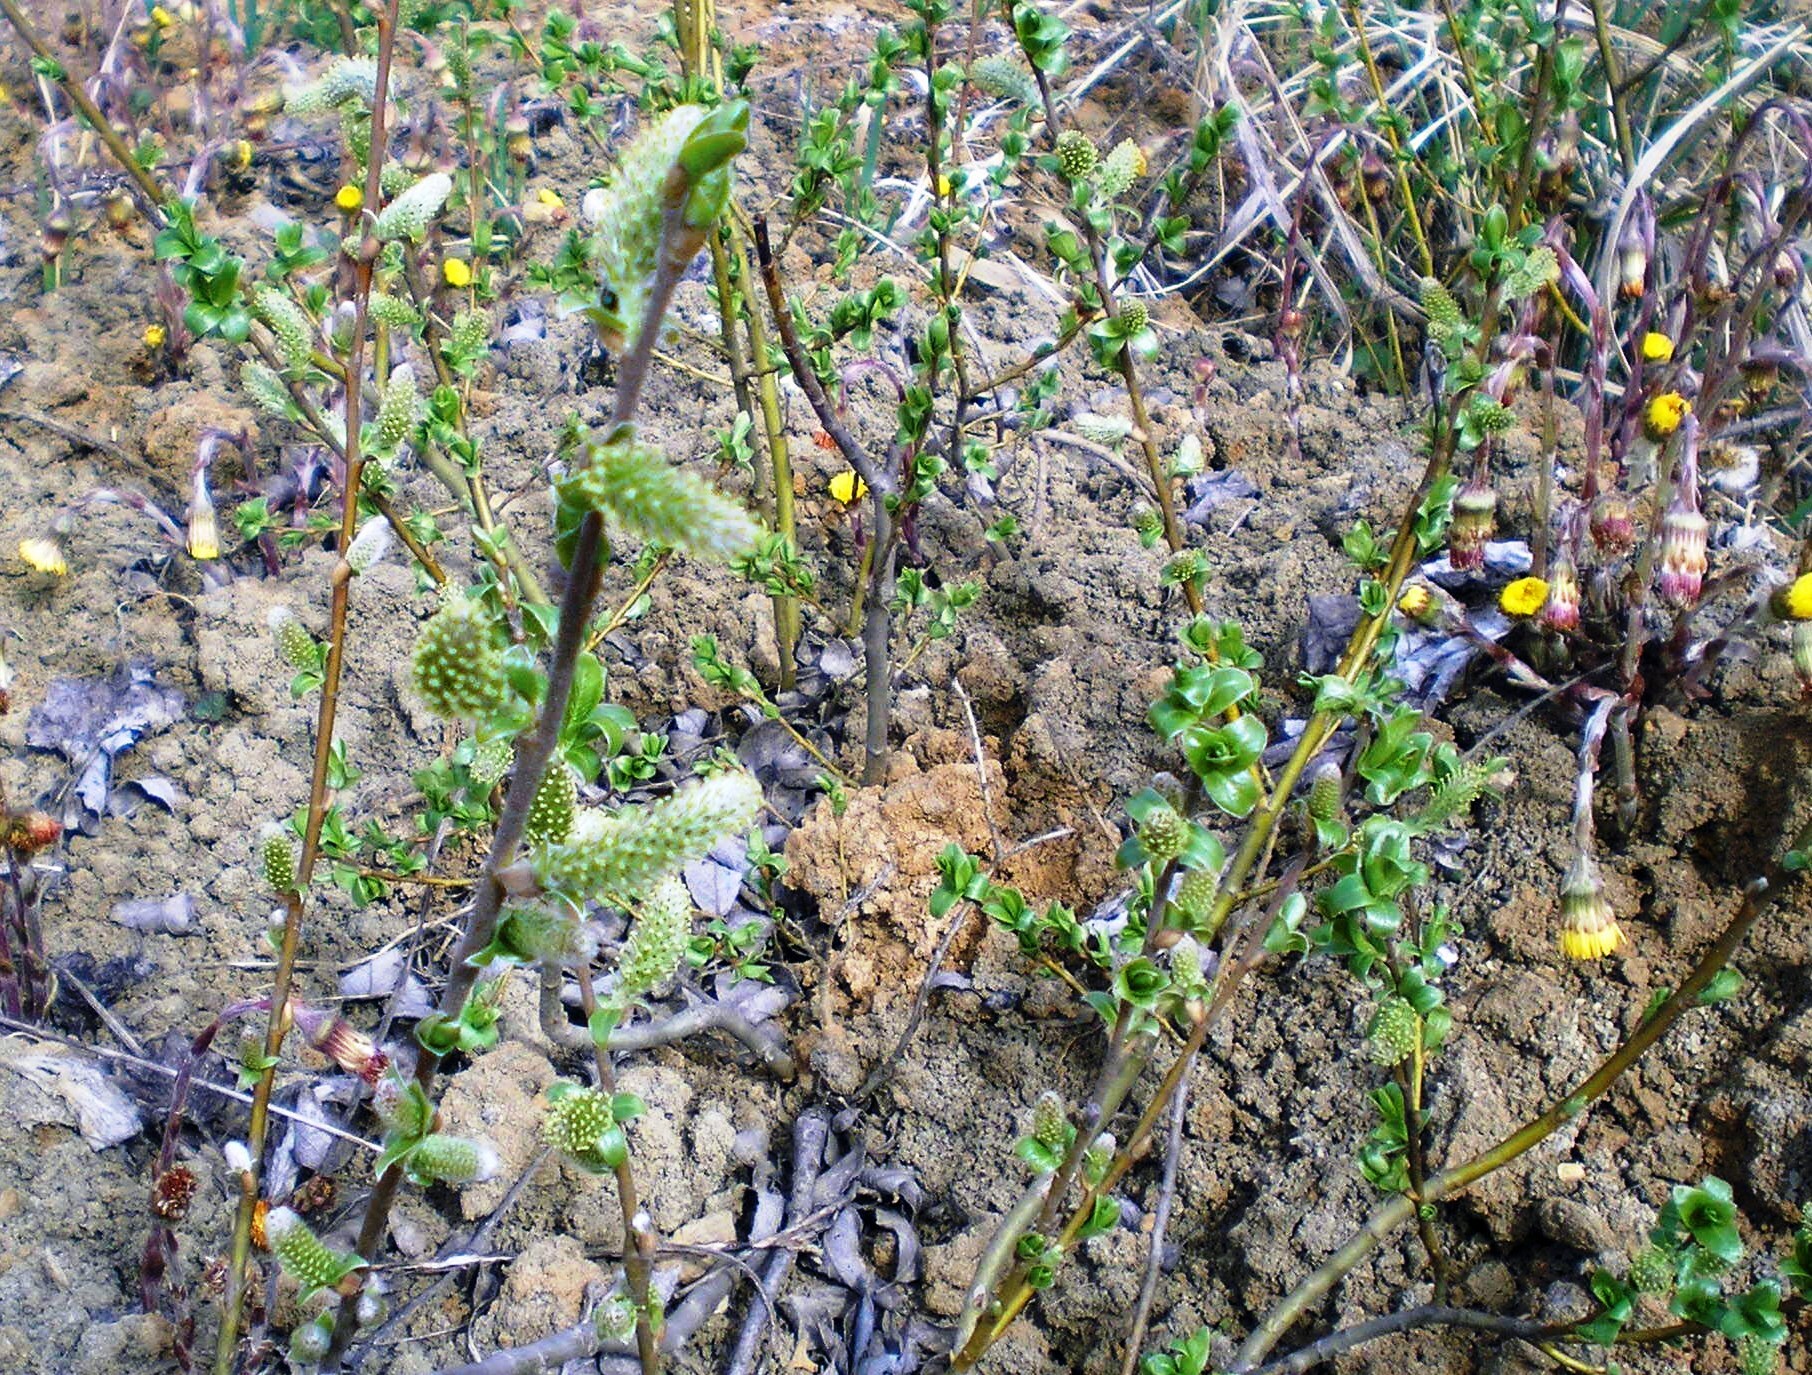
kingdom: Plantae
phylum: Tracheophyta
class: Magnoliopsida
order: Malpighiales
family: Salicaceae
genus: Salix
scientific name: Salix myrsinifolia
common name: Dark-leaved willow
